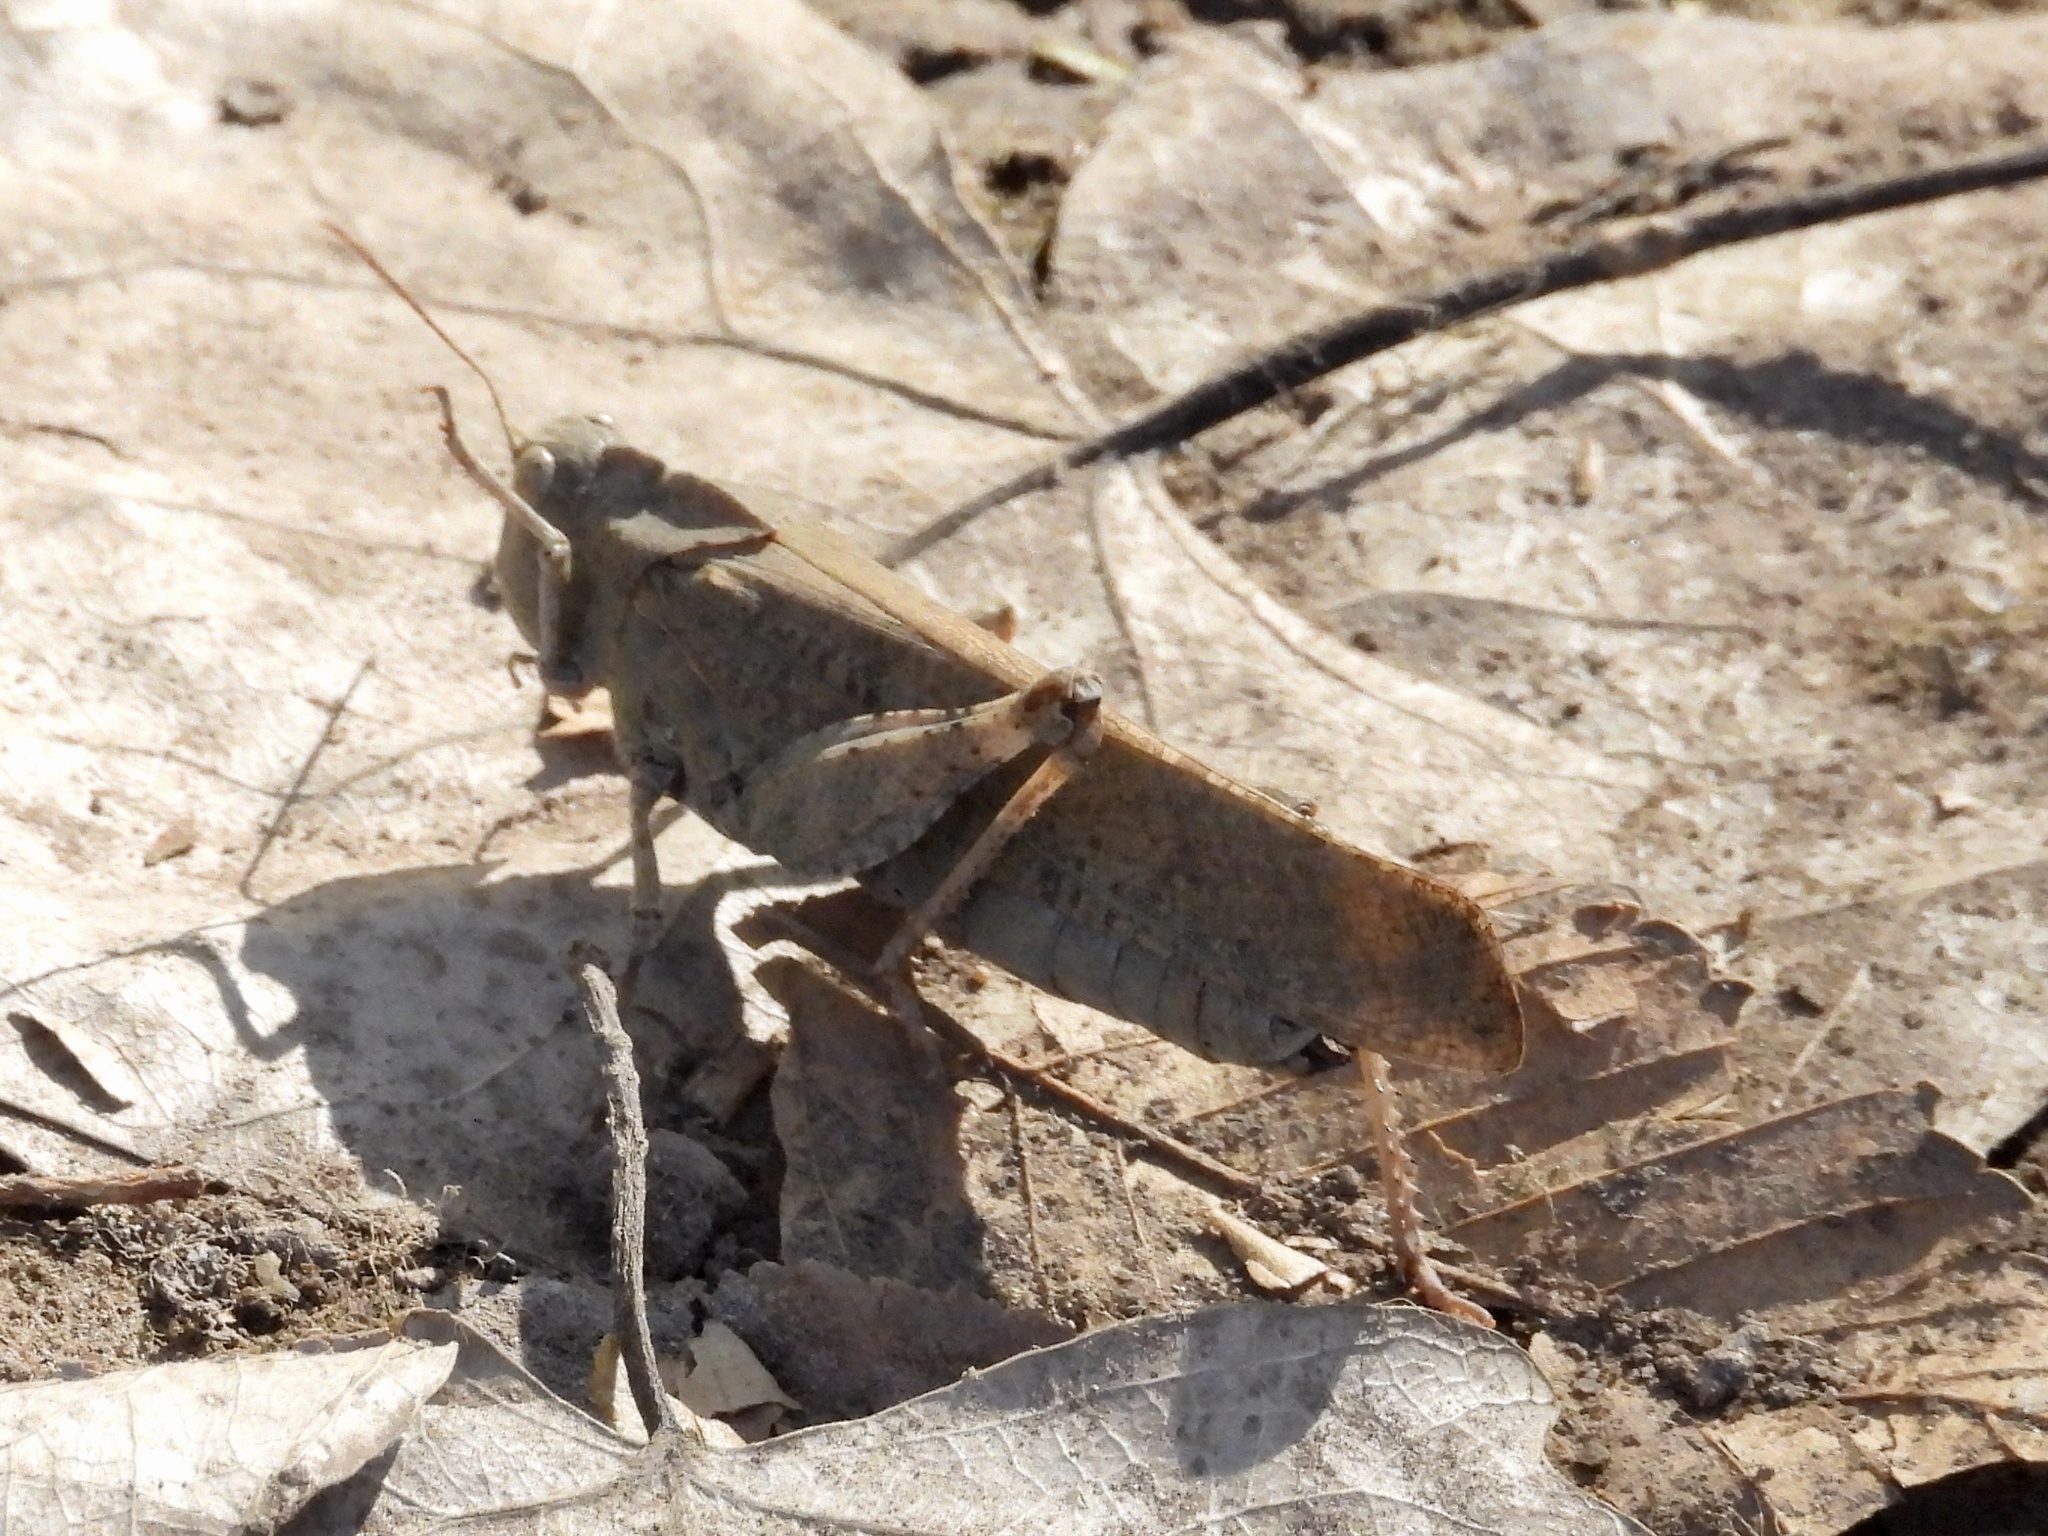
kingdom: Animalia
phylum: Arthropoda
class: Insecta
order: Orthoptera
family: Acrididae
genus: Dissosteira
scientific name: Dissosteira carolina
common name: Carolina grasshopper
